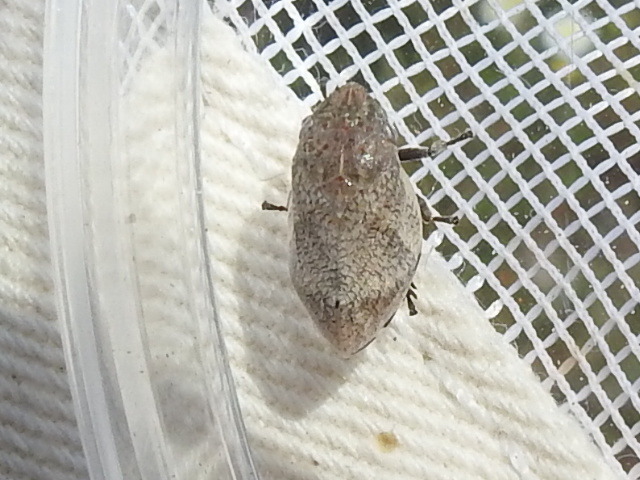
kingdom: Animalia
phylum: Arthropoda
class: Insecta
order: Hemiptera
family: Aphrophoridae
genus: Lepyronia
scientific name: Lepyronia gibbosa
